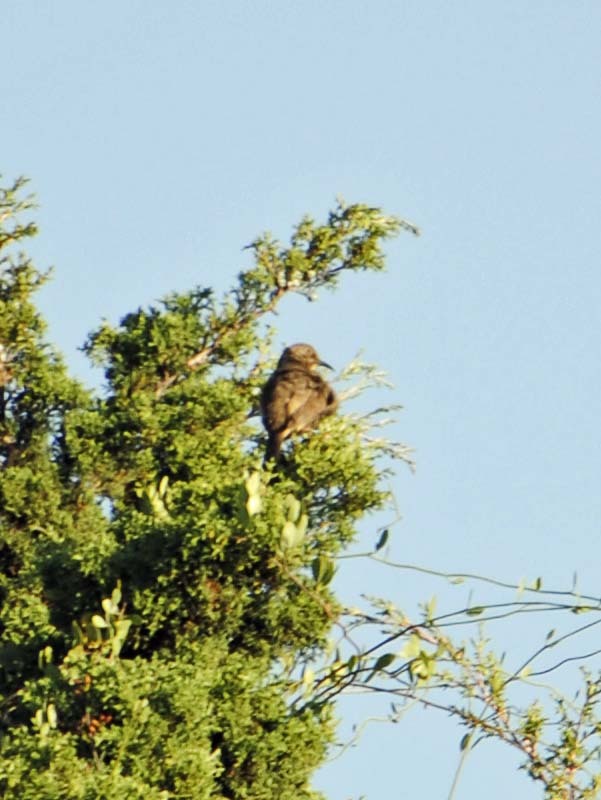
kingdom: Animalia
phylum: Chordata
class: Aves
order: Passeriformes
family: Mimidae
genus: Toxostoma
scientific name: Toxostoma curvirostre
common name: Curve-billed thrasher
